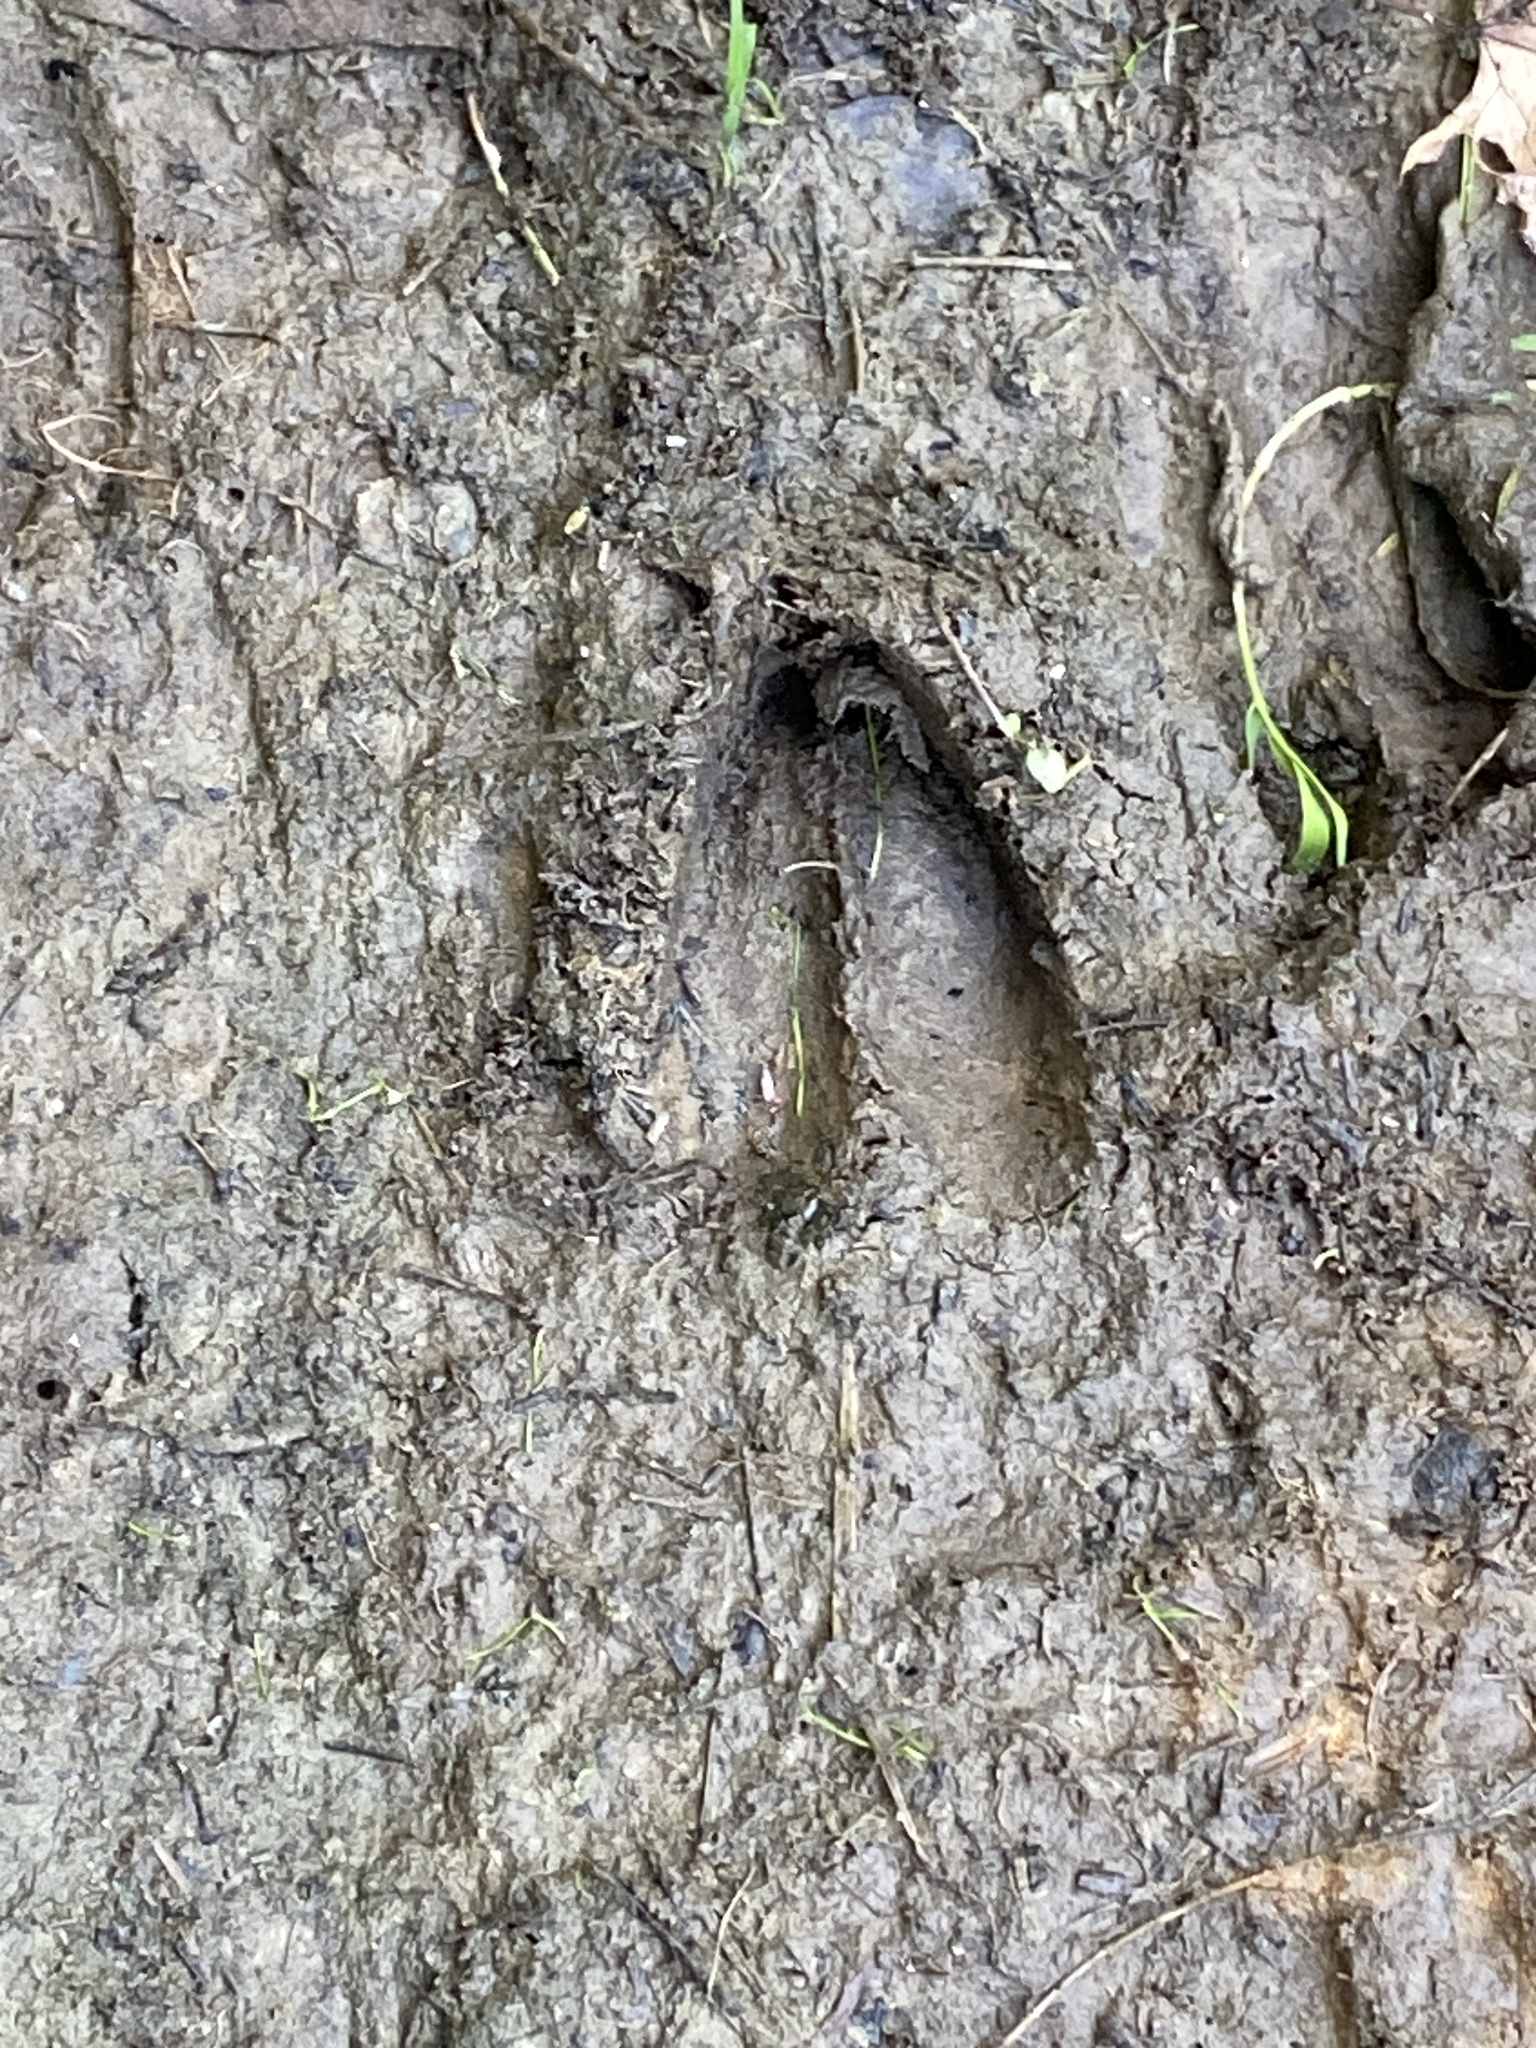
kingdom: Animalia
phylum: Chordata
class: Mammalia
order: Artiodactyla
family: Cervidae
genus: Odocoileus
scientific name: Odocoileus virginianus
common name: White-tailed deer
